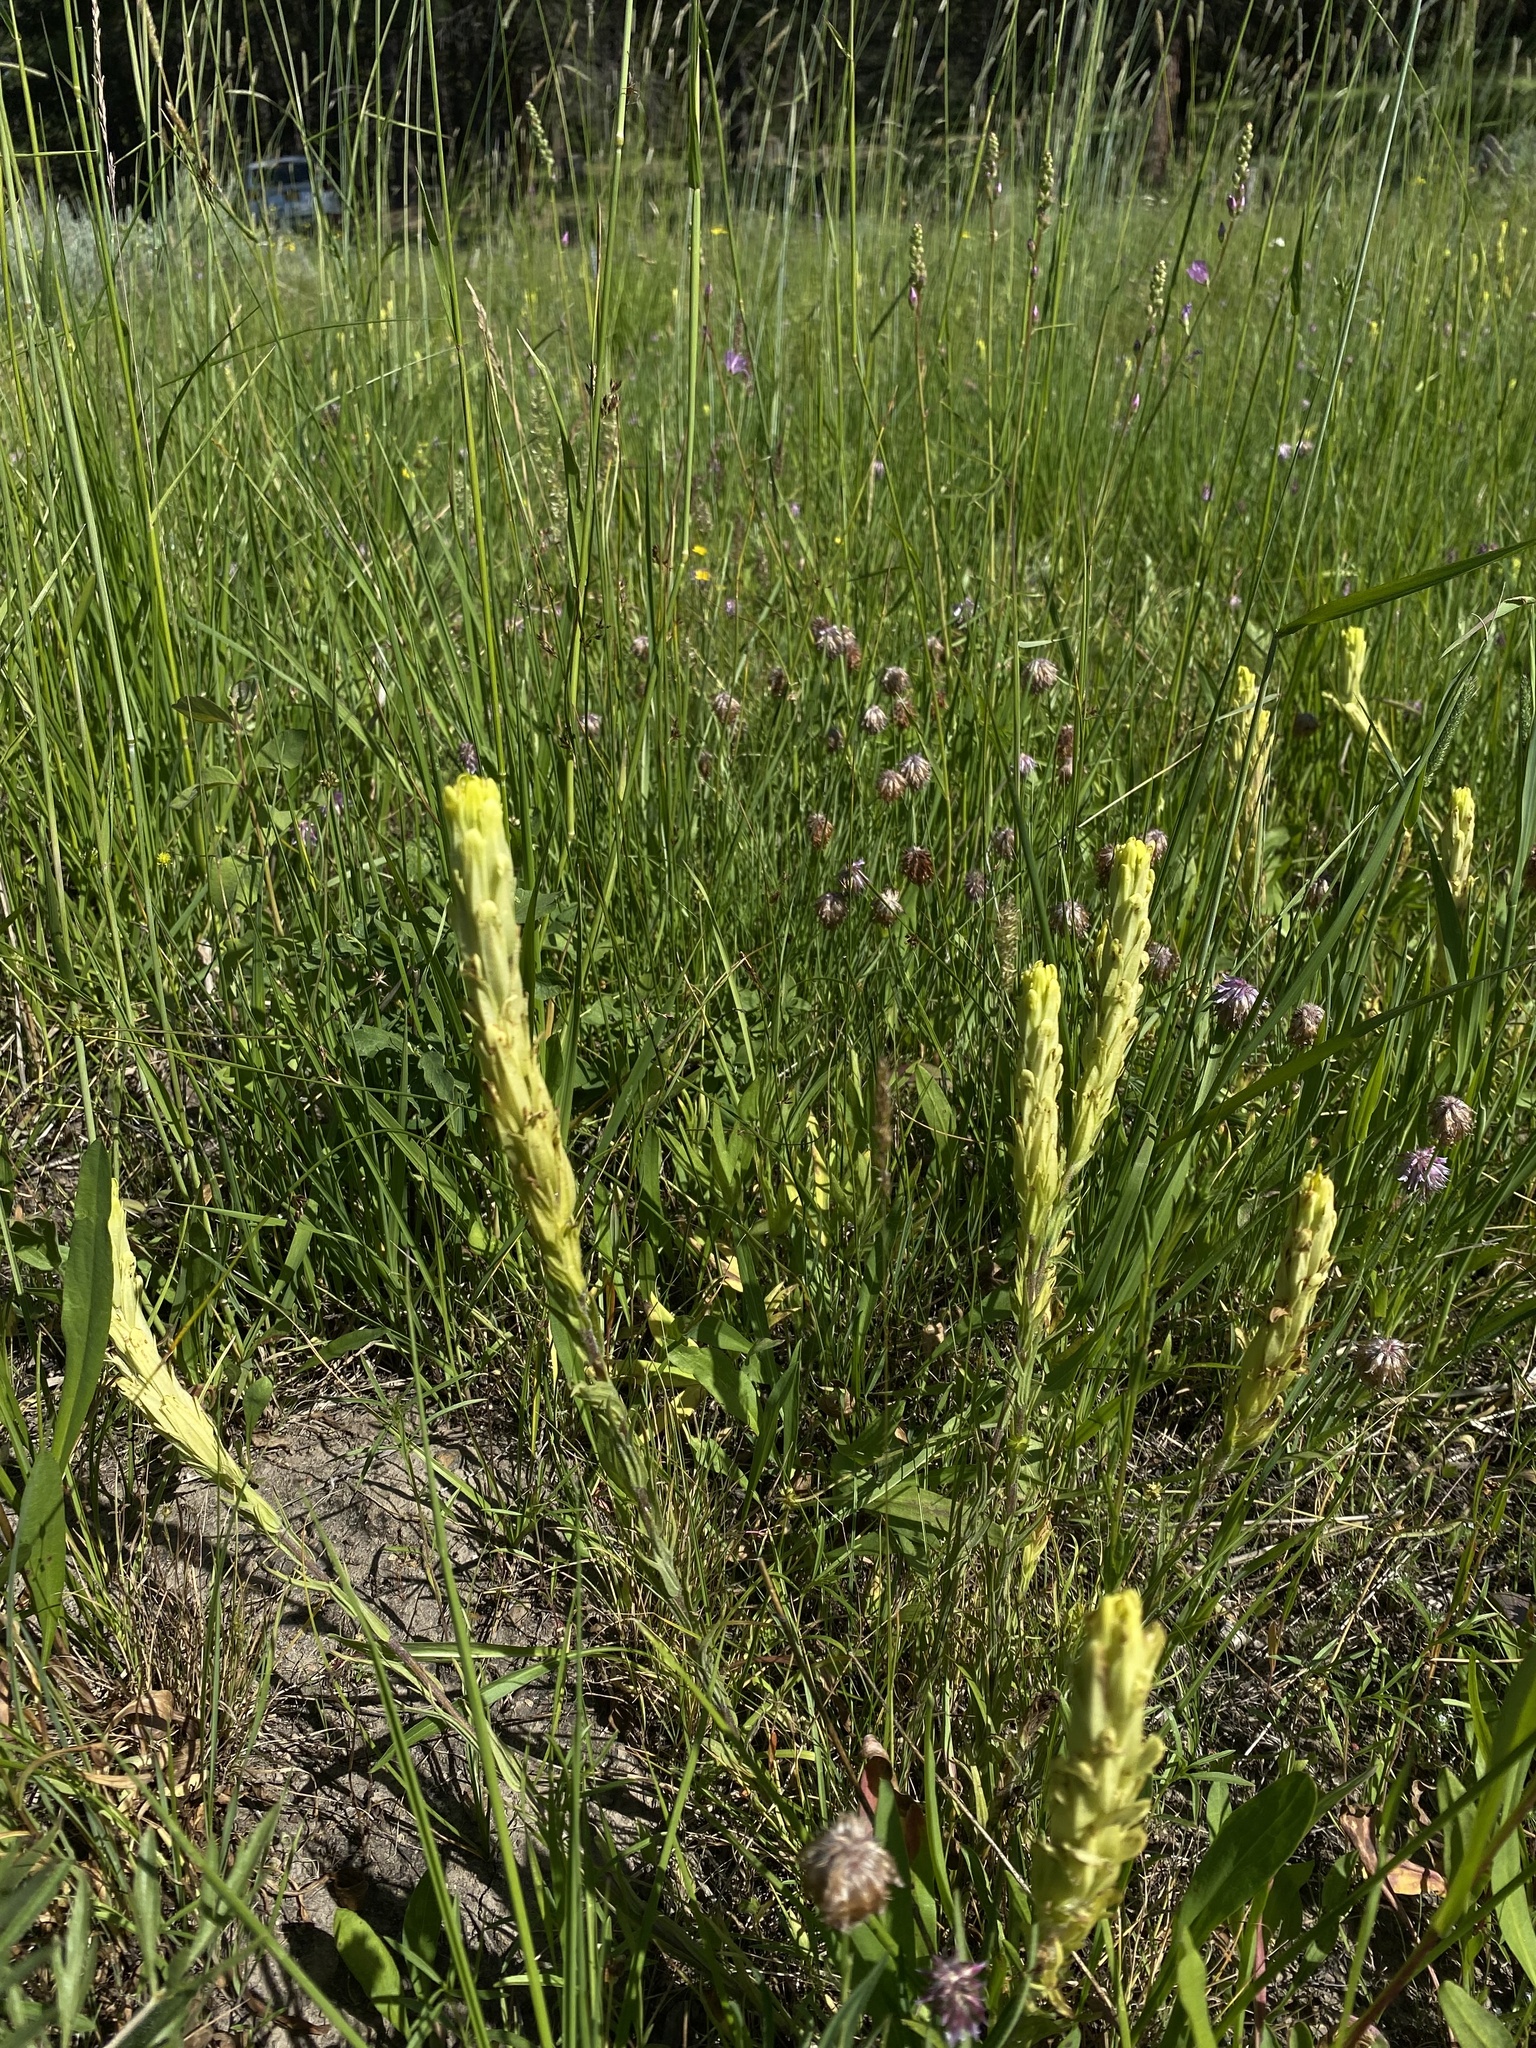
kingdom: Plantae
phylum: Tracheophyta
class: Magnoliopsida
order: Lamiales
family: Orobanchaceae
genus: Castilleja
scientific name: Castilleja cusickii
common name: Cusick's paintbrush
